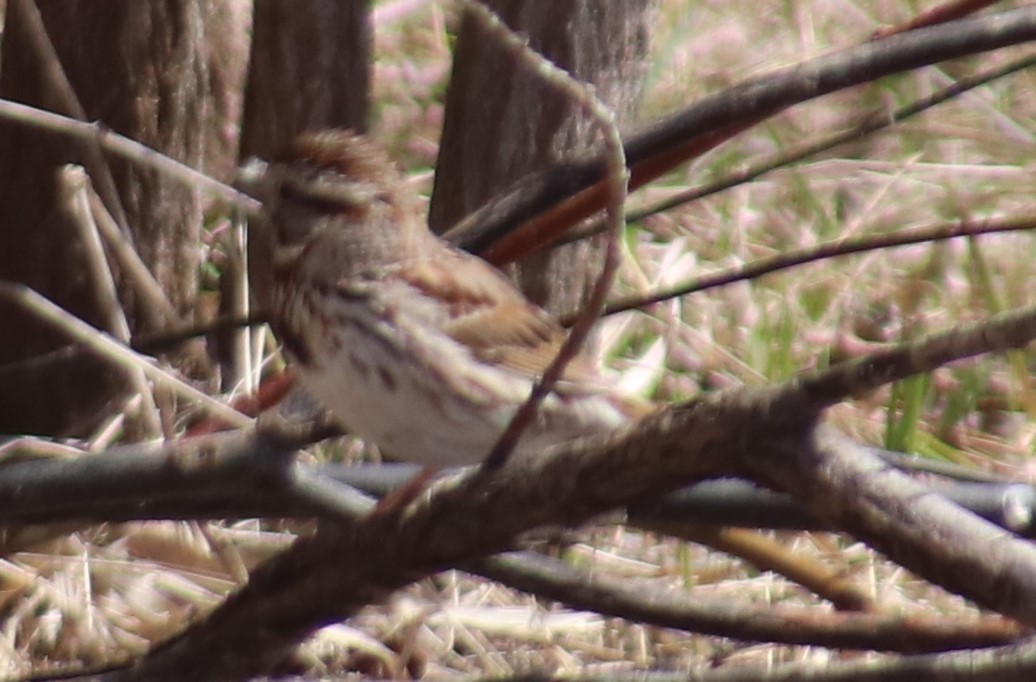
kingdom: Animalia
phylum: Chordata
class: Aves
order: Passeriformes
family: Passerellidae
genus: Melospiza
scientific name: Melospiza melodia
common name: Song sparrow
